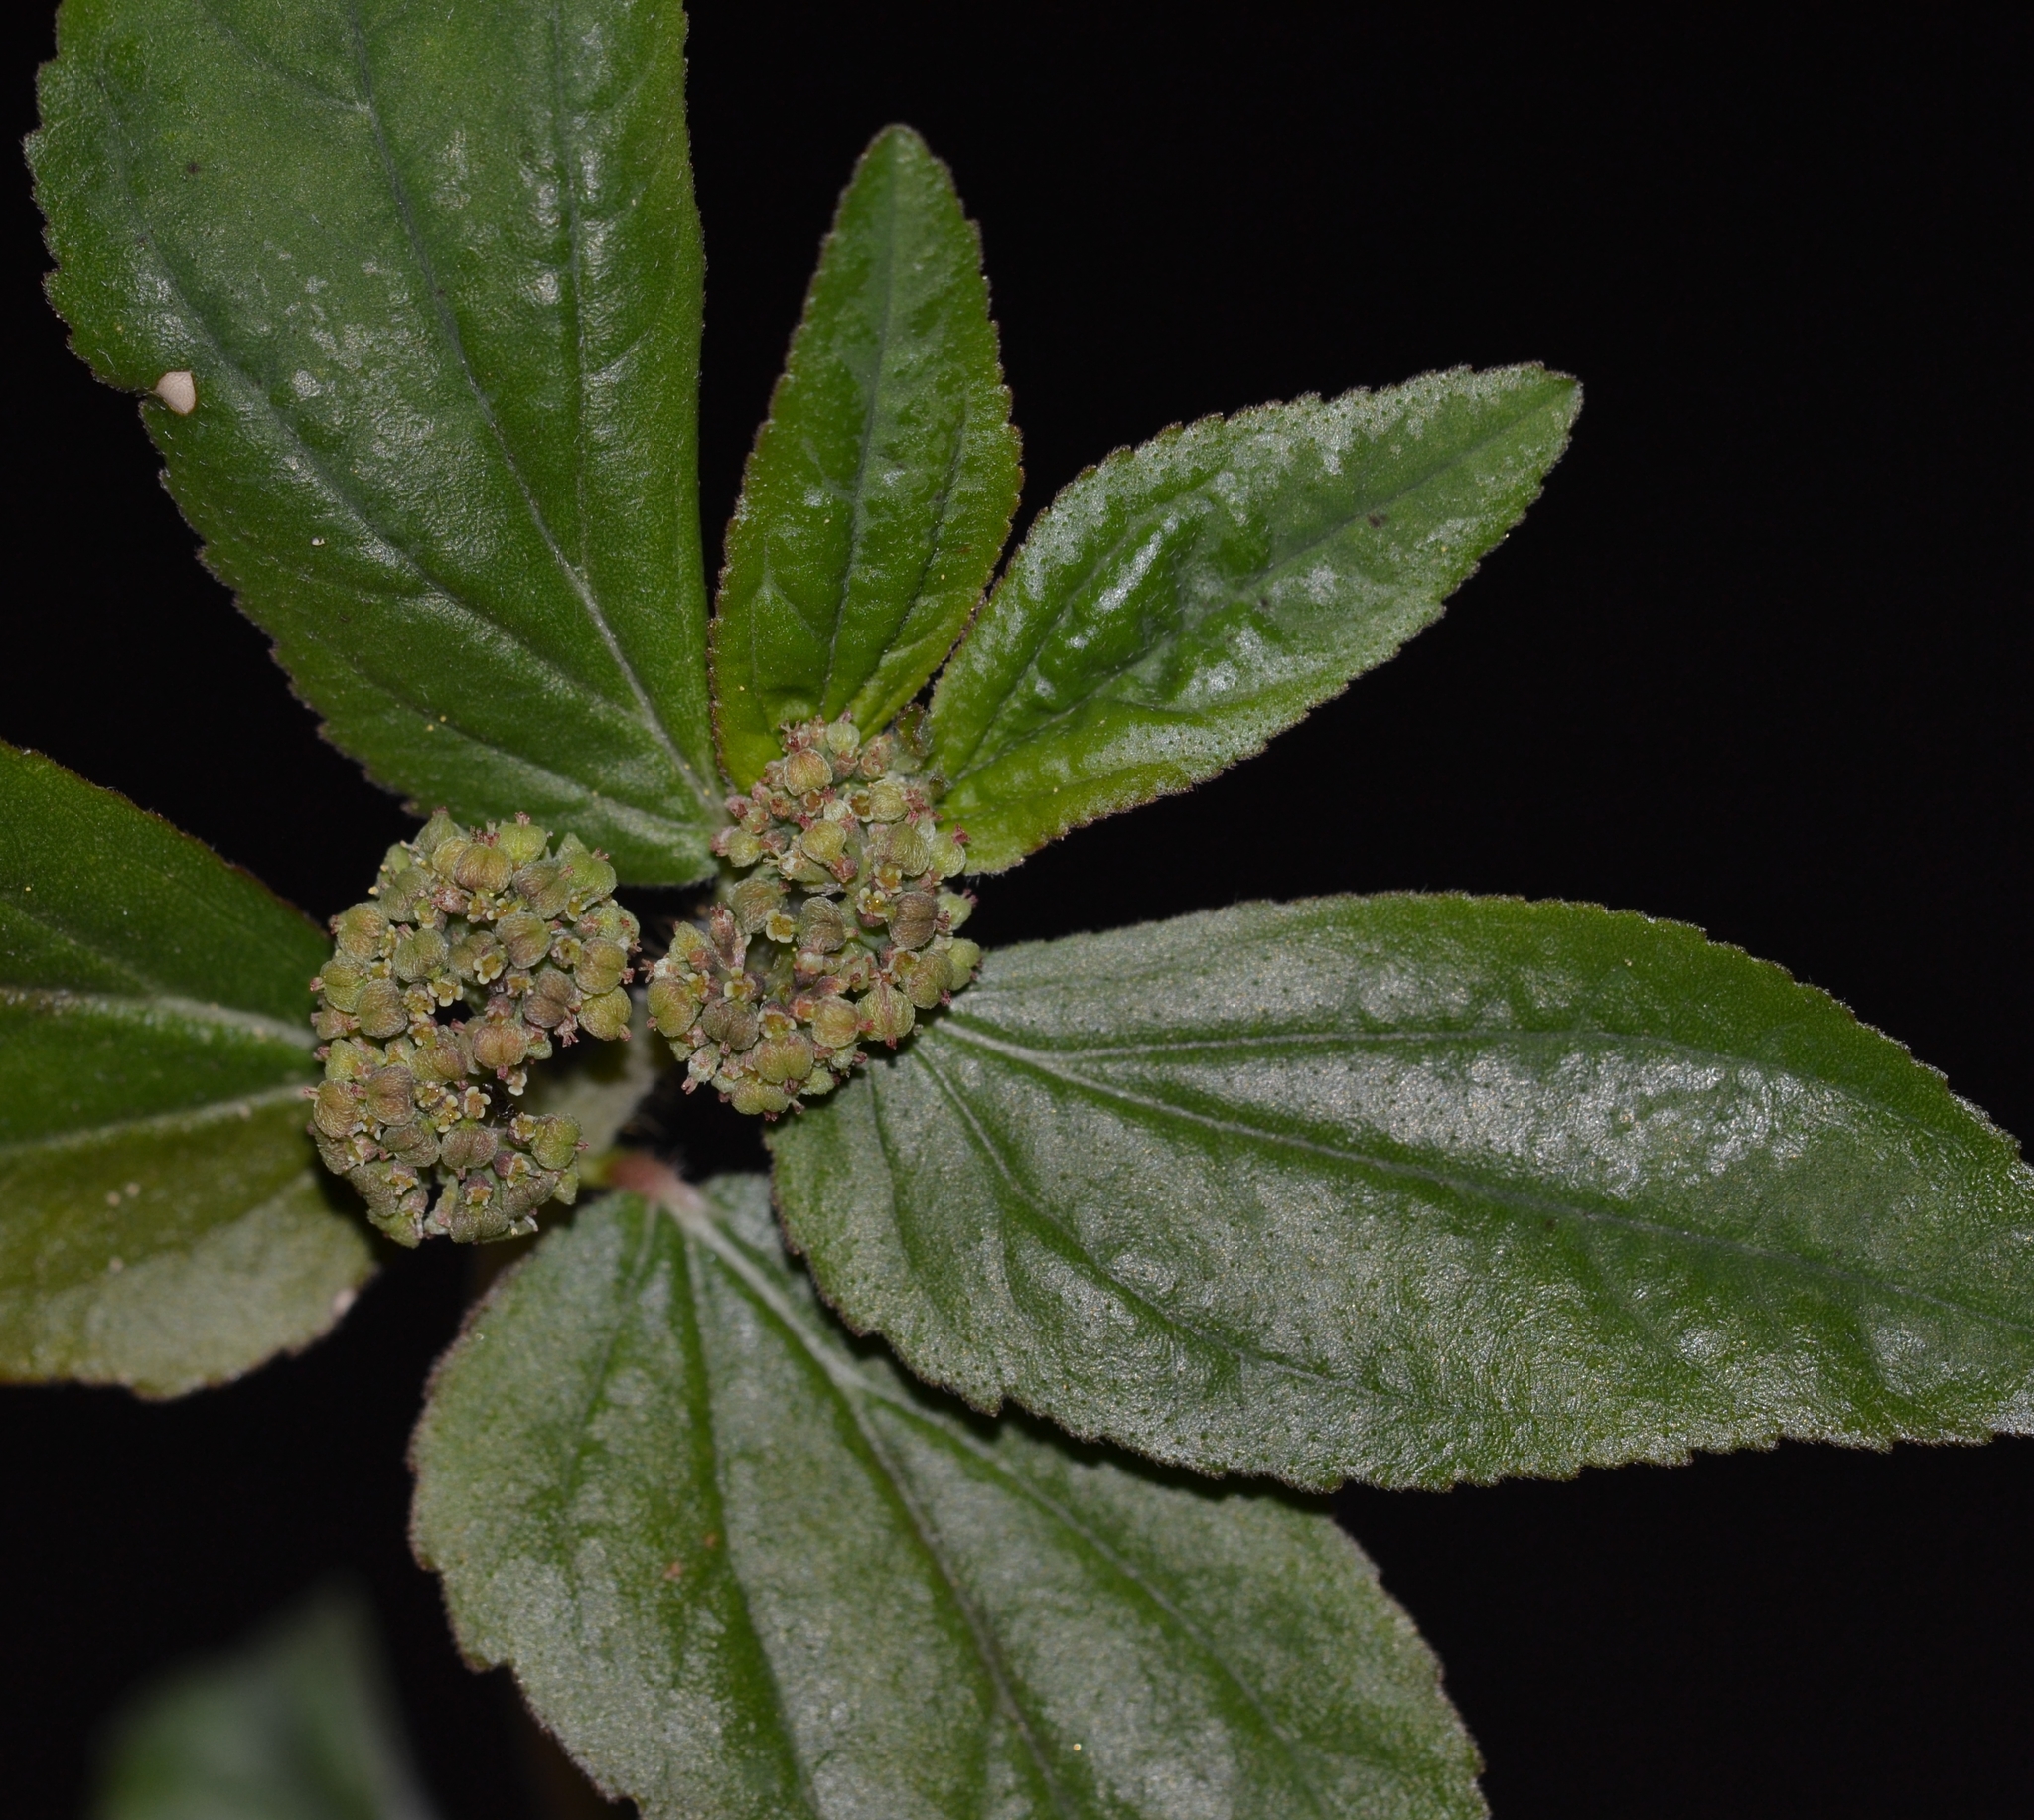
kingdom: Plantae
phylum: Tracheophyta
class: Magnoliopsida
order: Malpighiales
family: Euphorbiaceae
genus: Euphorbia
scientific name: Euphorbia hirta
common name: Pillpod sandmat
